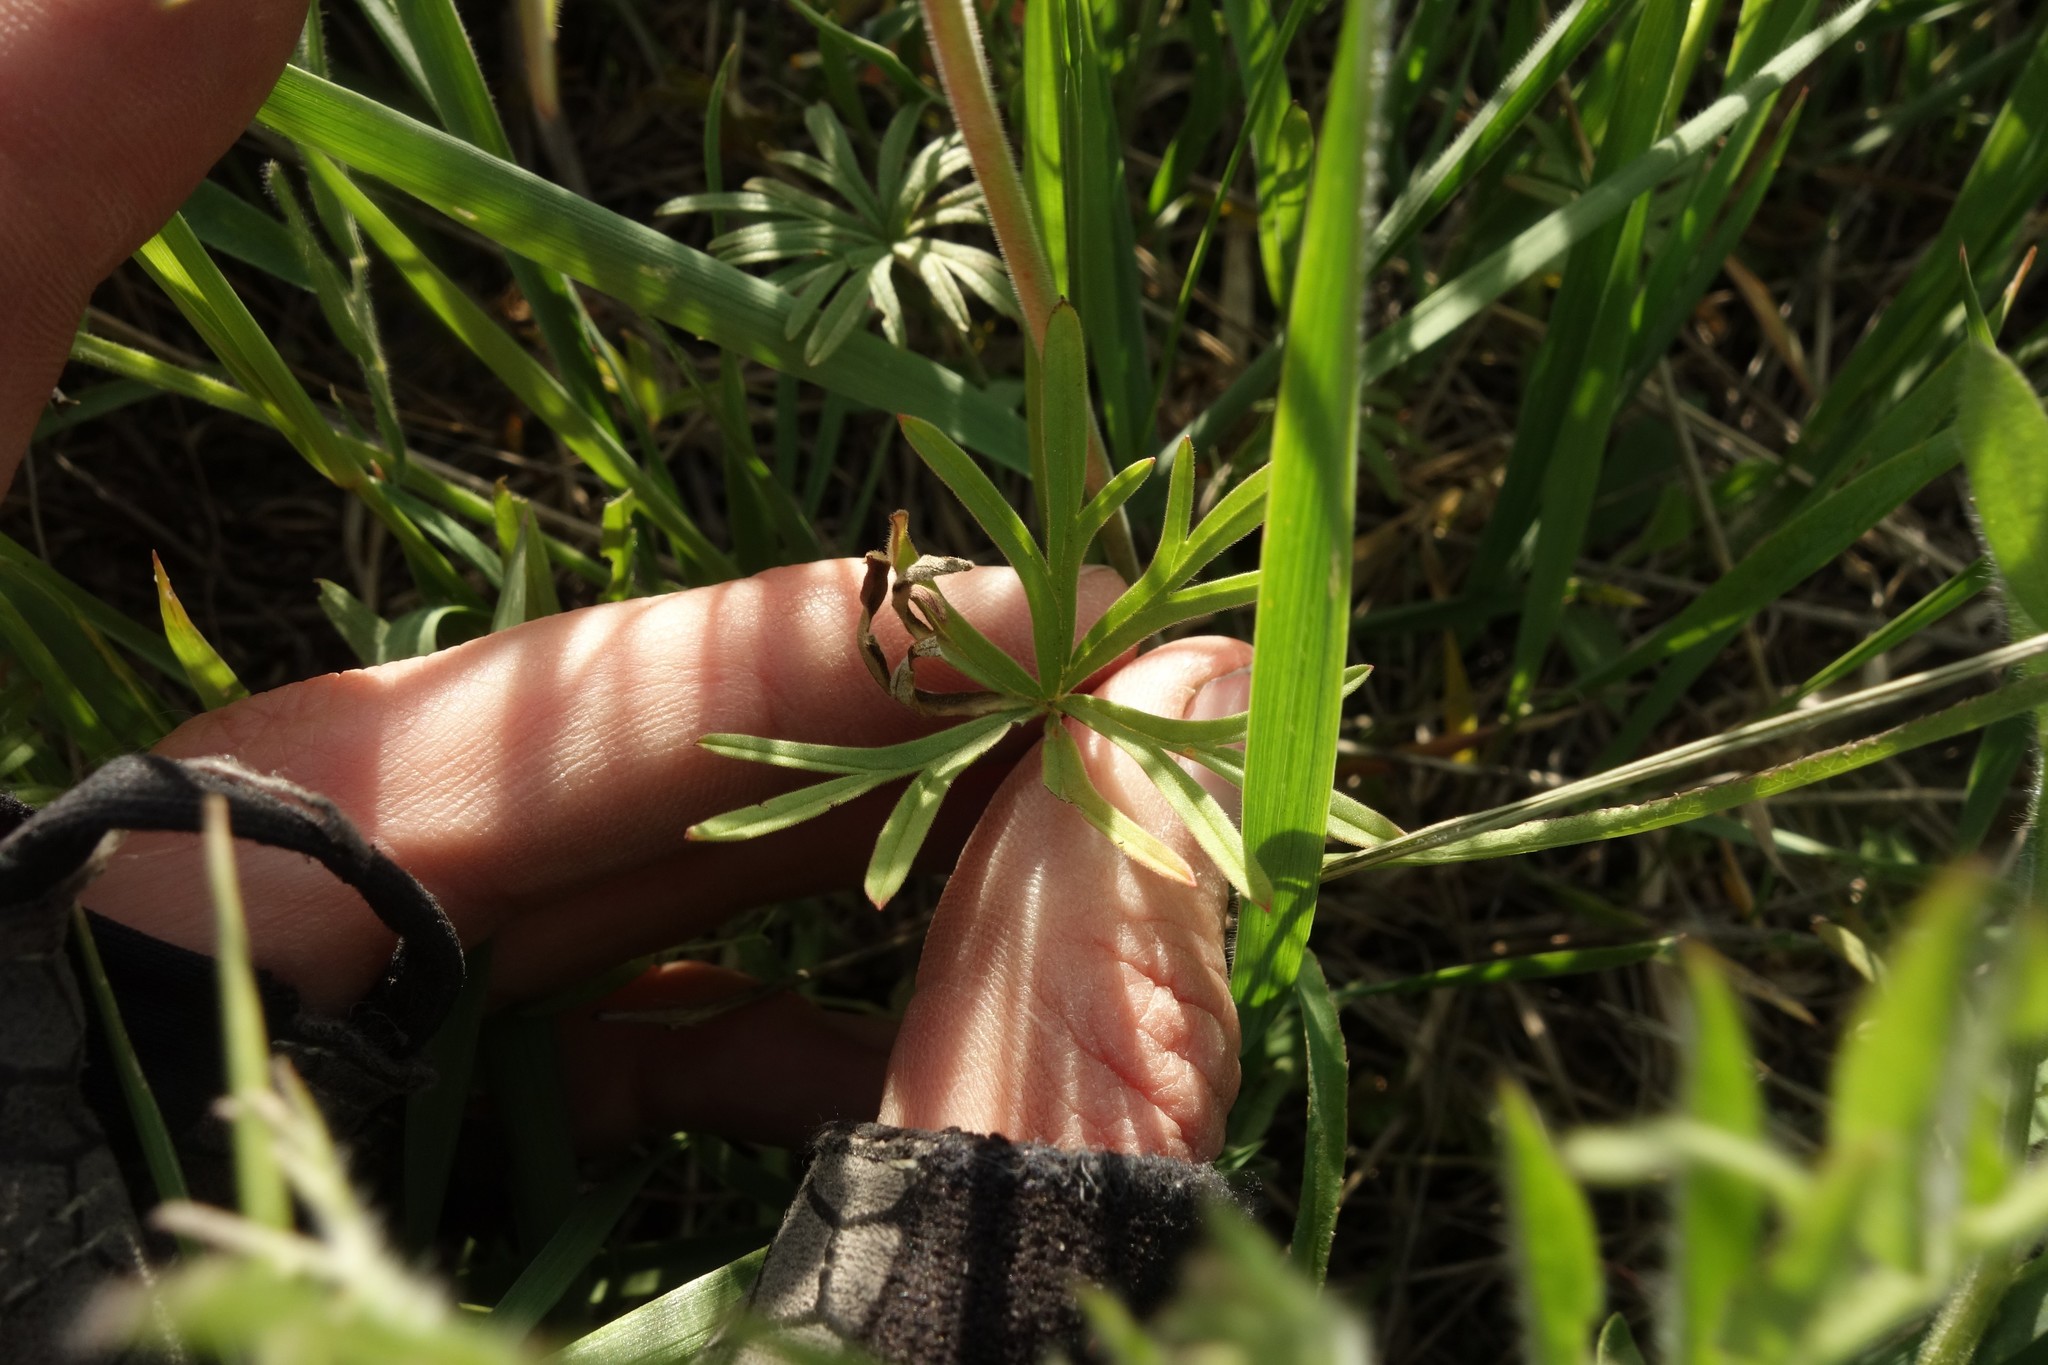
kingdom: Plantae
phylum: Tracheophyta
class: Magnoliopsida
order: Geraniales
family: Geraniaceae
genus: Geranium
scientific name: Geranium linearilobum
